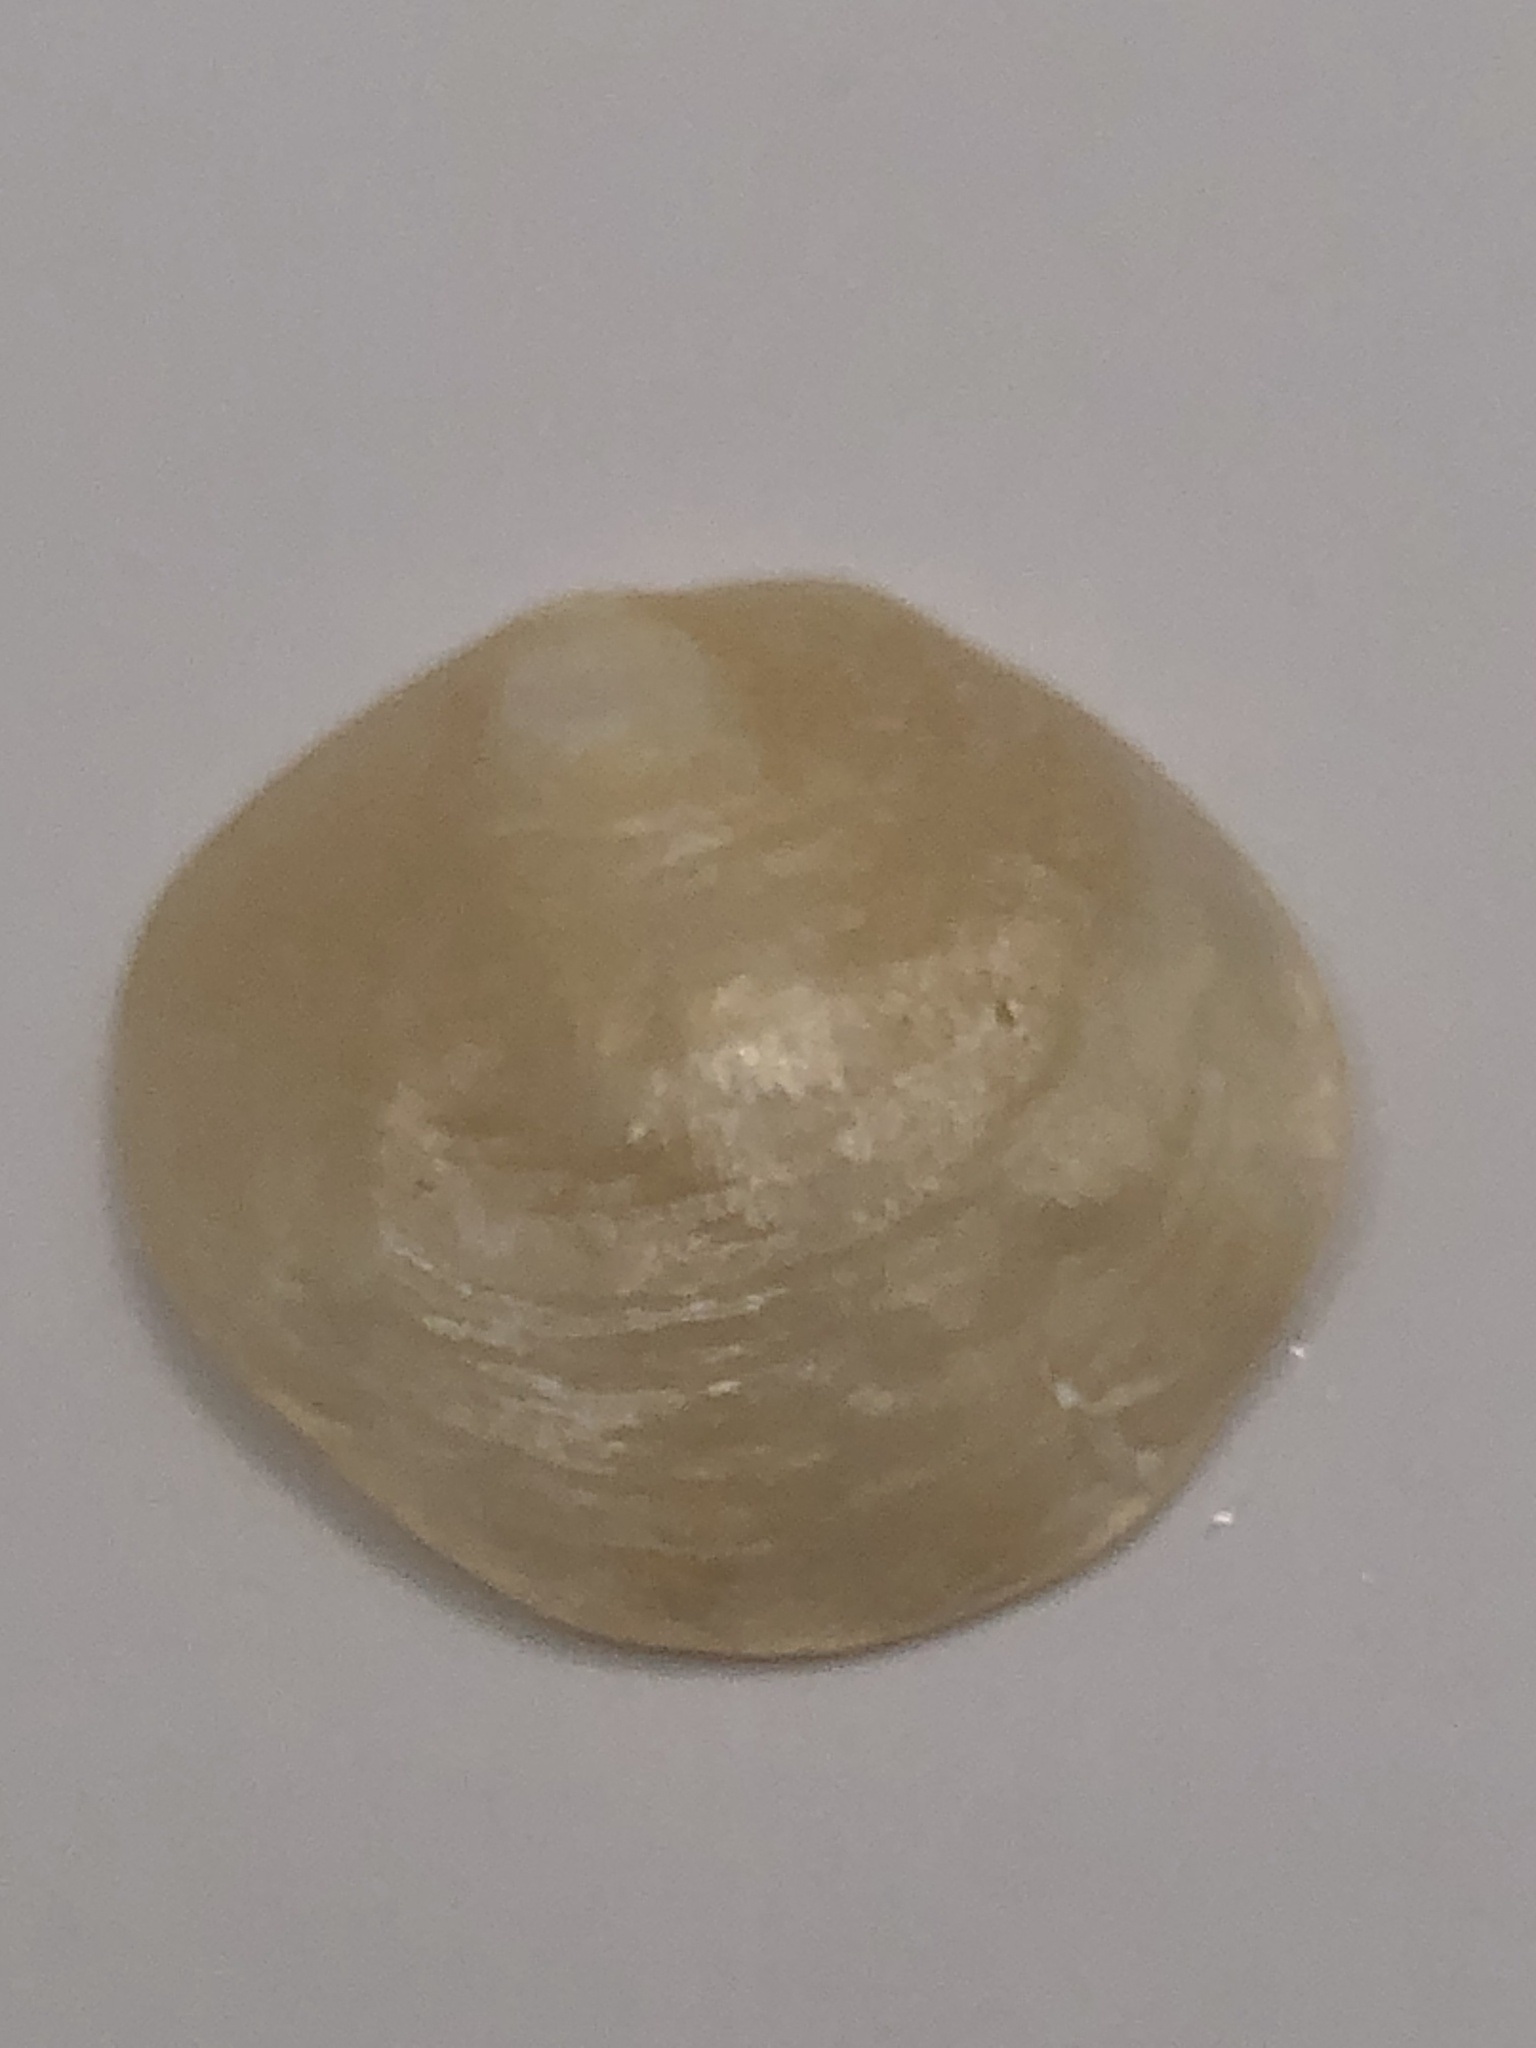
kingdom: Animalia
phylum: Mollusca
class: Bivalvia
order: Pectinida
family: Anomiidae
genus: Anomia
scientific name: Anomia simplex
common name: Common jingle shell
